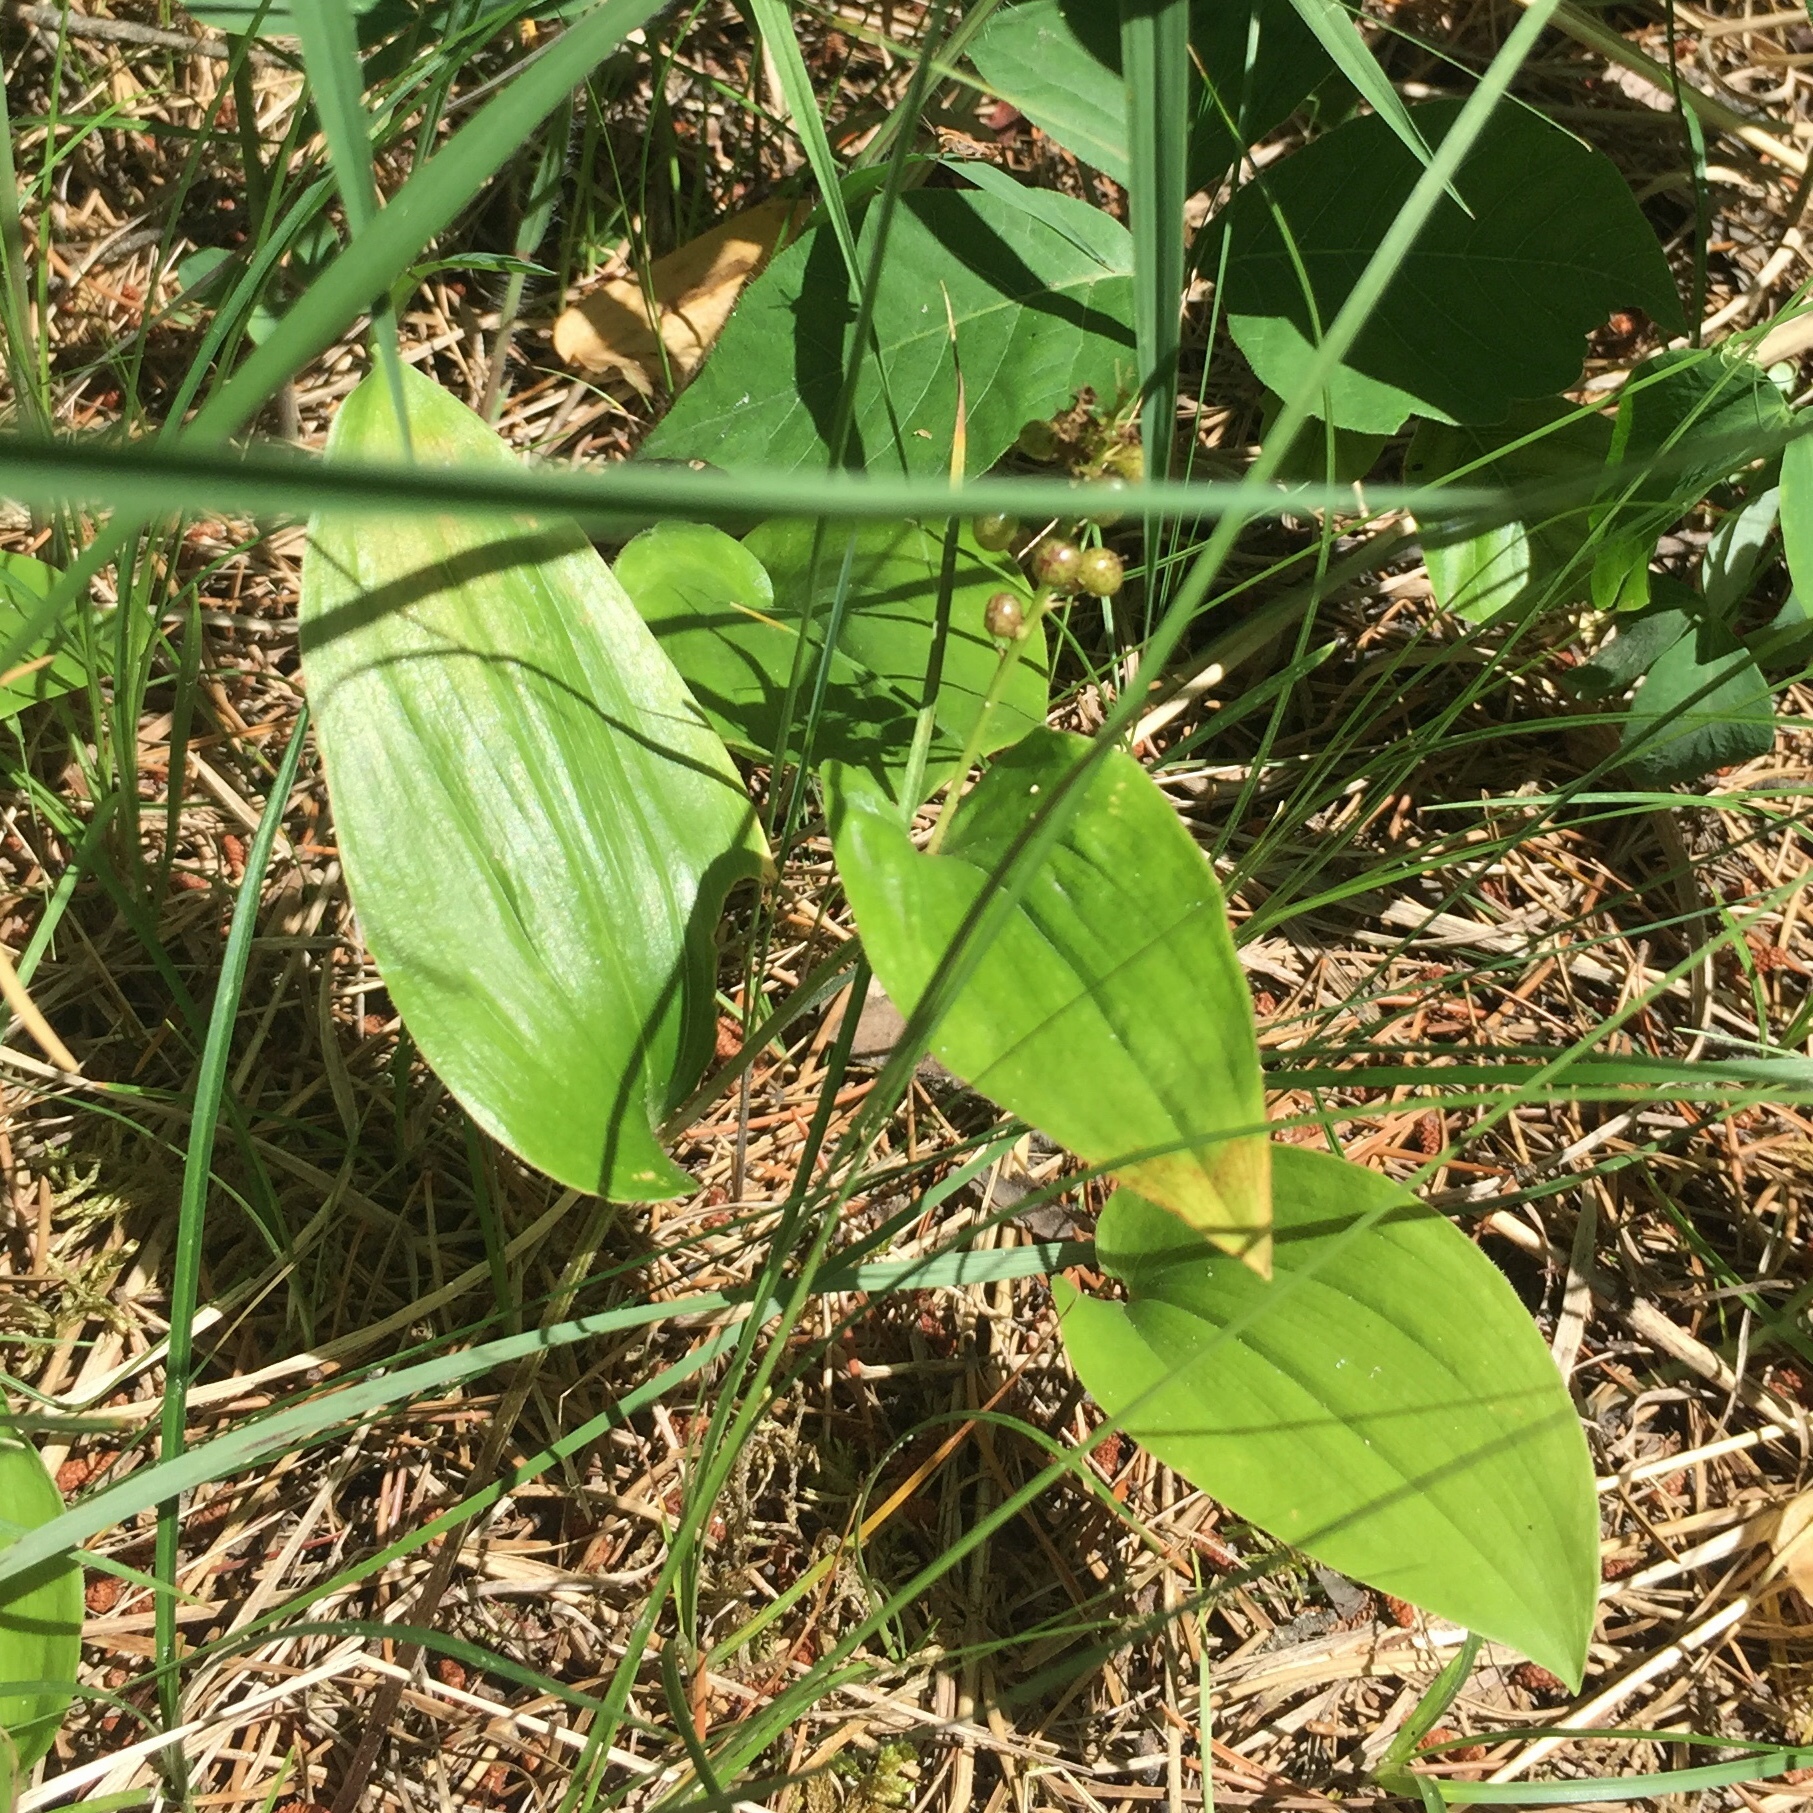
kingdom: Plantae
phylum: Tracheophyta
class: Liliopsida
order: Asparagales
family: Asparagaceae
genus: Maianthemum
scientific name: Maianthemum canadense
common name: False lily-of-the-valley
